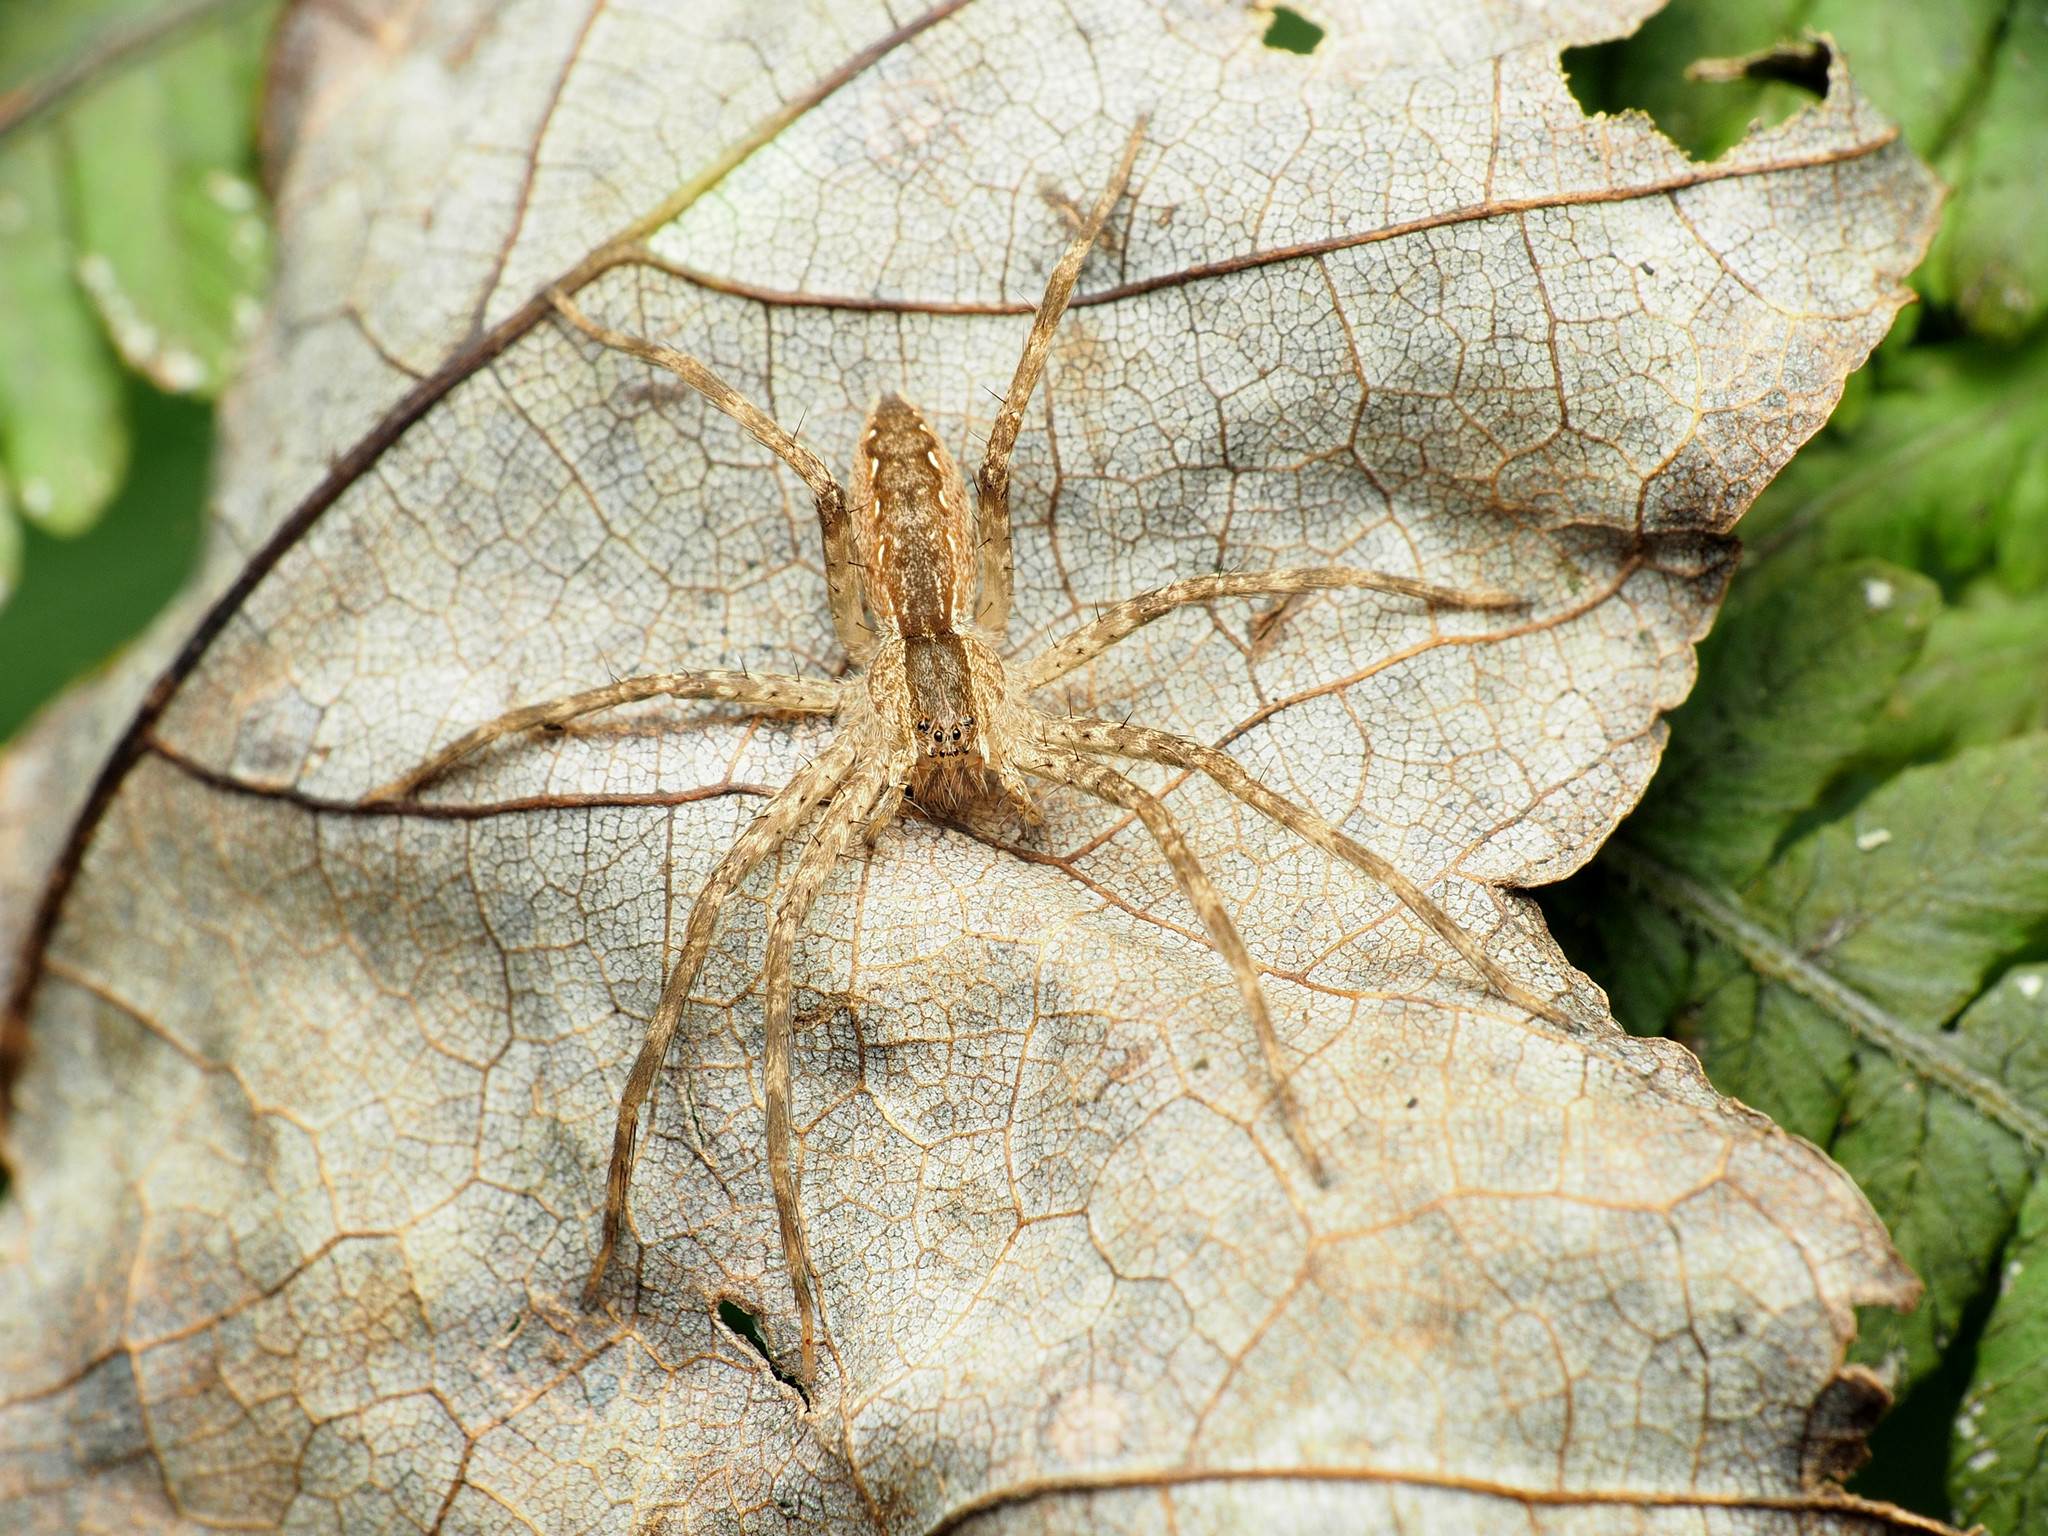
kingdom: Animalia
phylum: Arthropoda
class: Arachnida
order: Araneae
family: Pisauridae
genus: Pisaurina
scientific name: Pisaurina mira
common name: American nursery web spider
